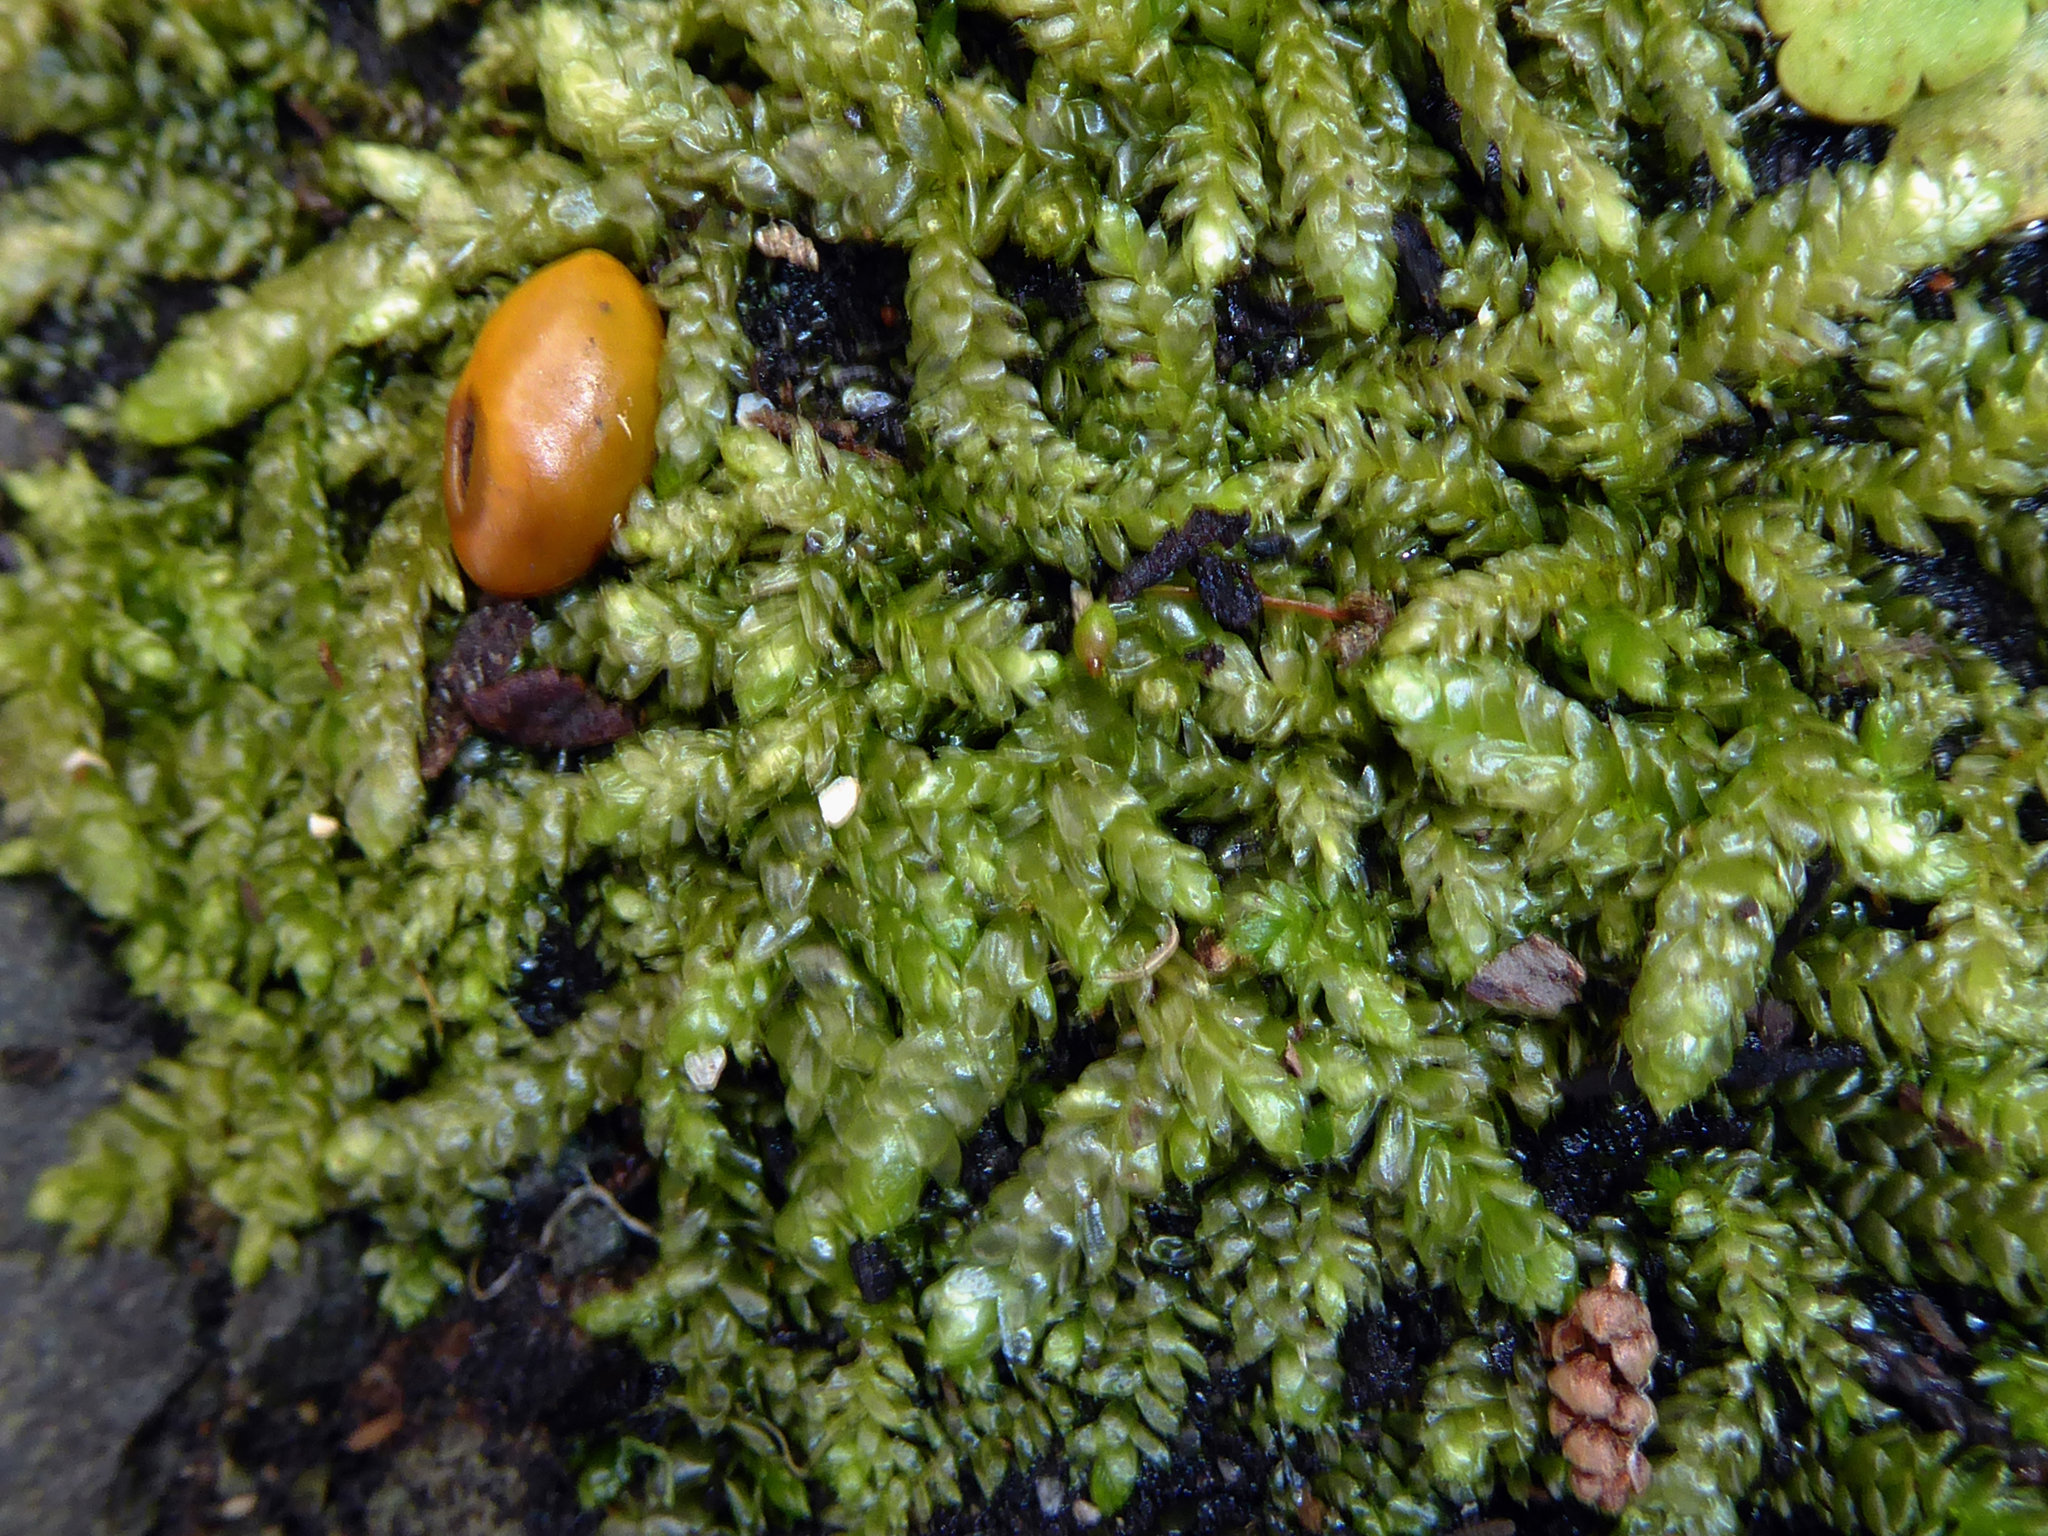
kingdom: Plantae
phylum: Bryophyta
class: Bryopsida
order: Hypnales
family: Brachytheciaceae
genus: Pseudoscleropodium
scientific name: Pseudoscleropodium purum
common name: Neat feather-moss
